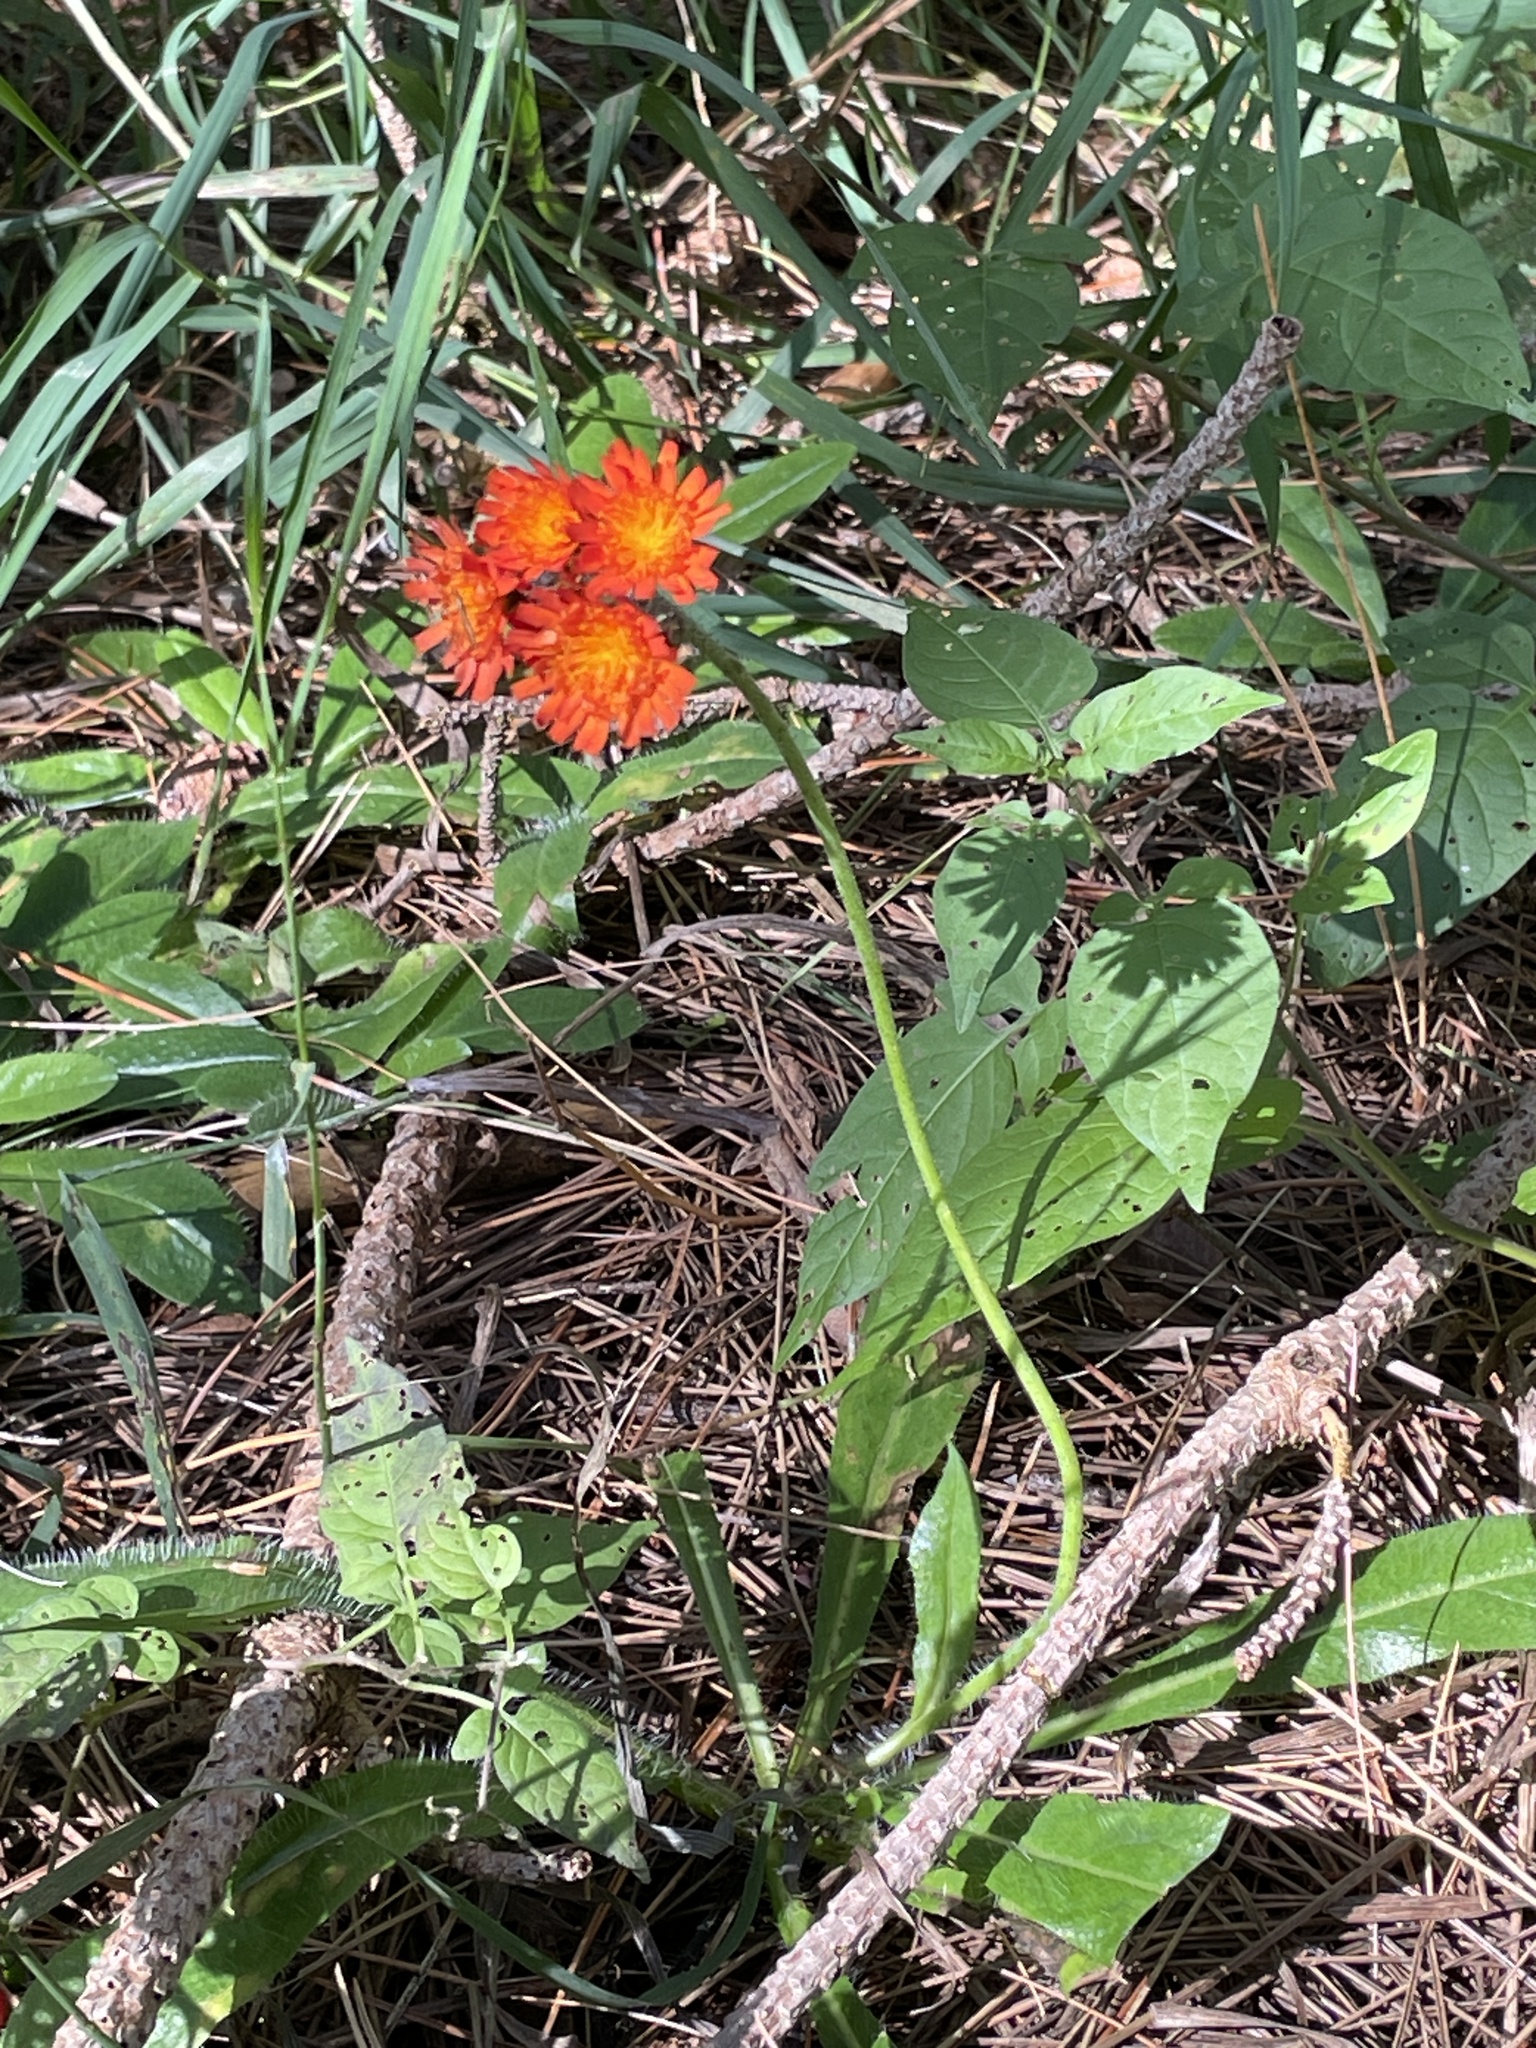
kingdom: Plantae
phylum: Tracheophyta
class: Magnoliopsida
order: Asterales
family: Asteraceae
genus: Pilosella
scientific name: Pilosella aurantiaca
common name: Fox-and-cubs
